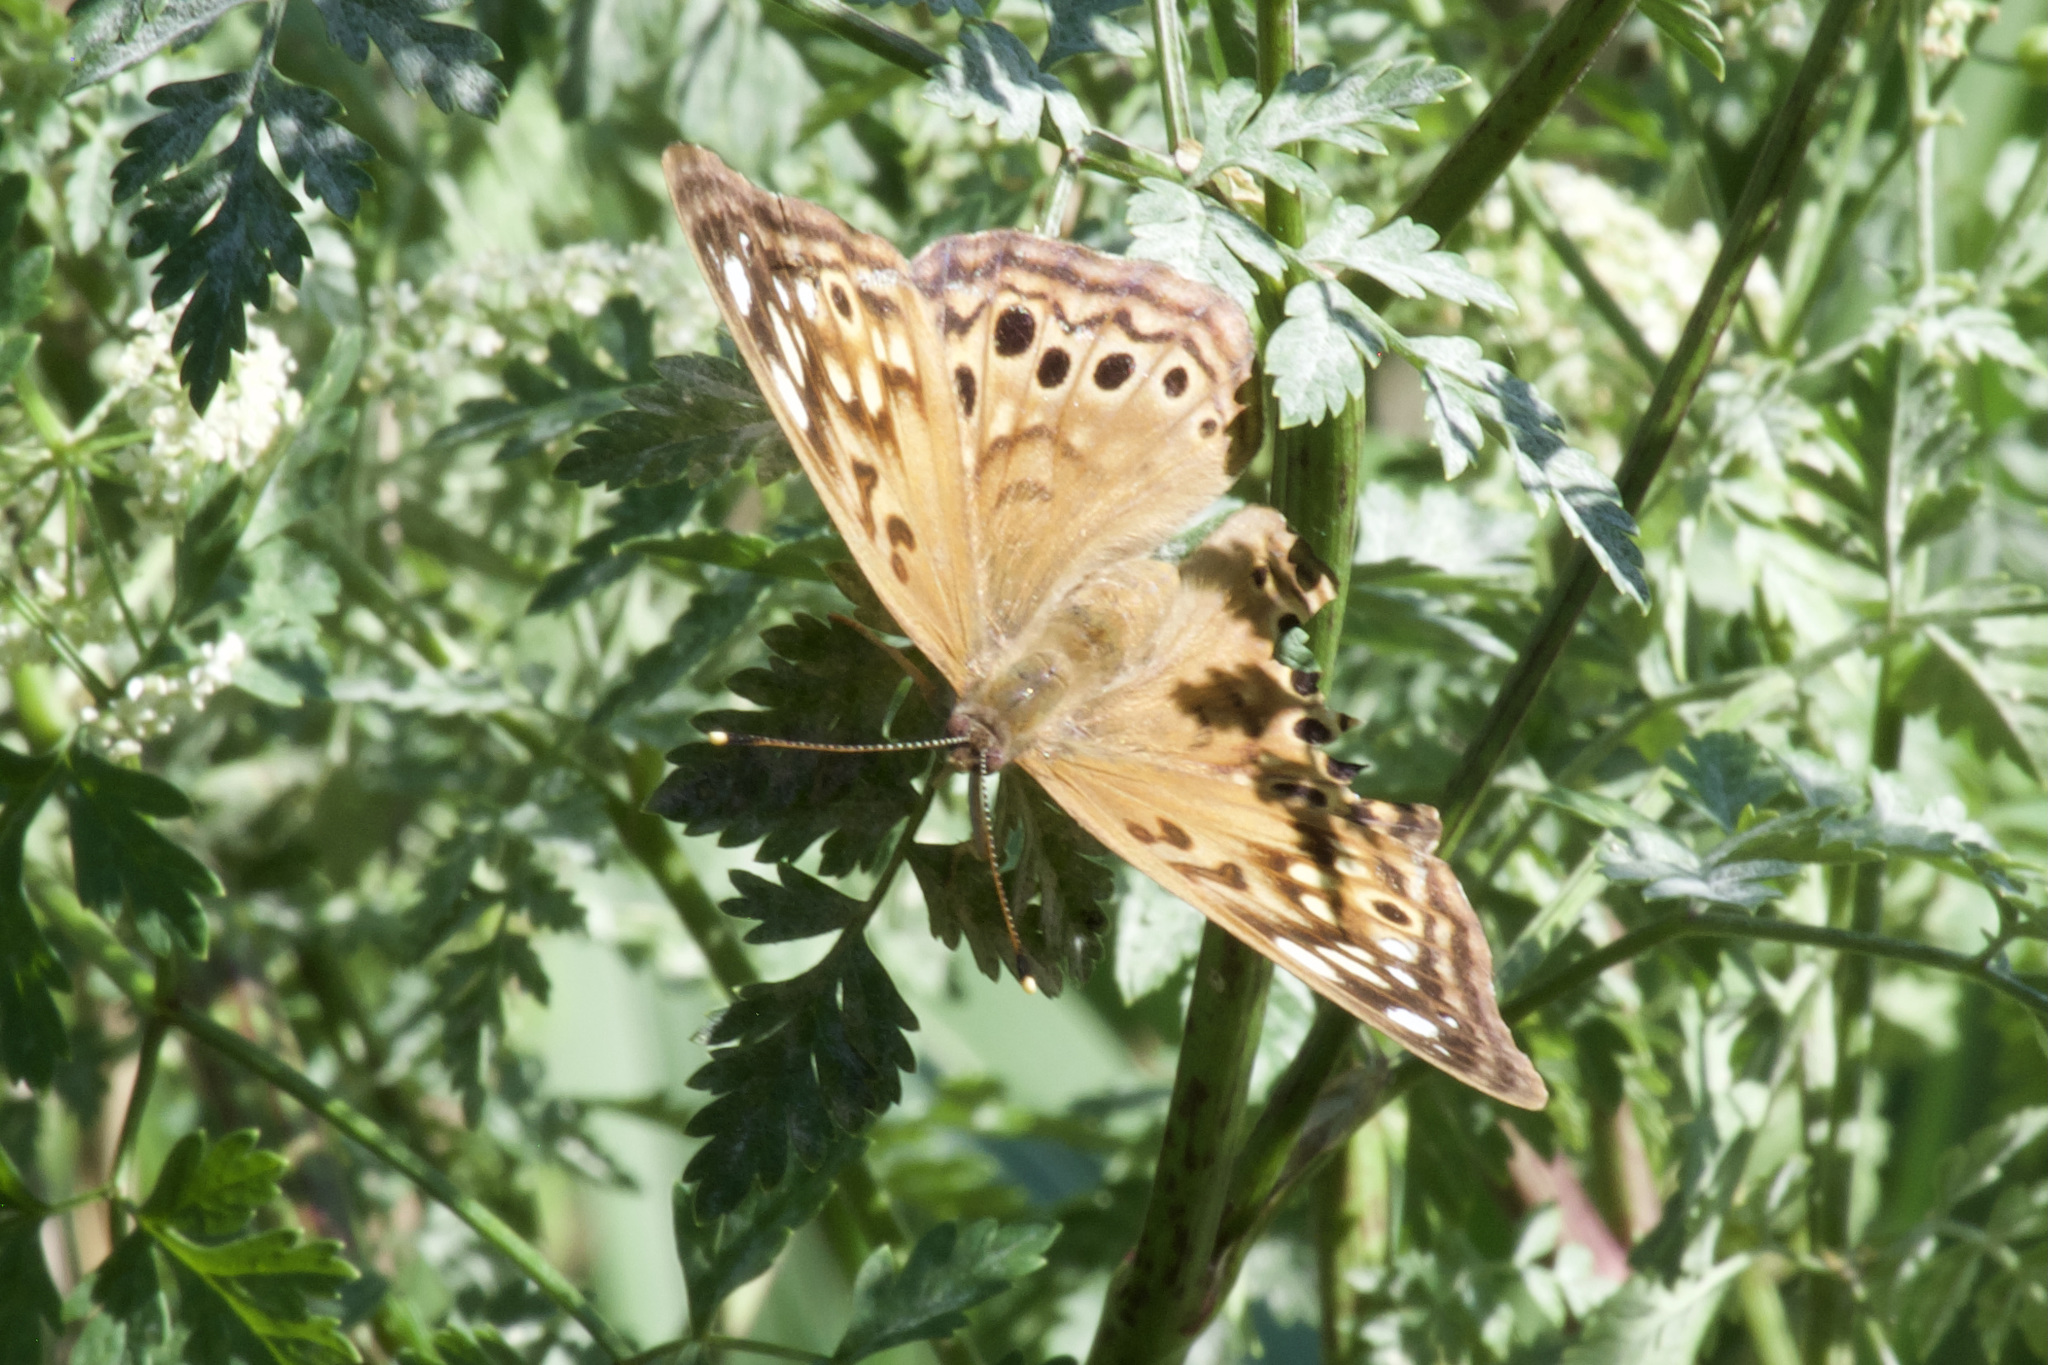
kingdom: Animalia
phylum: Arthropoda
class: Insecta
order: Lepidoptera
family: Nymphalidae
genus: Asterocampa
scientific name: Asterocampa celtis
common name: Hackberry emperor
